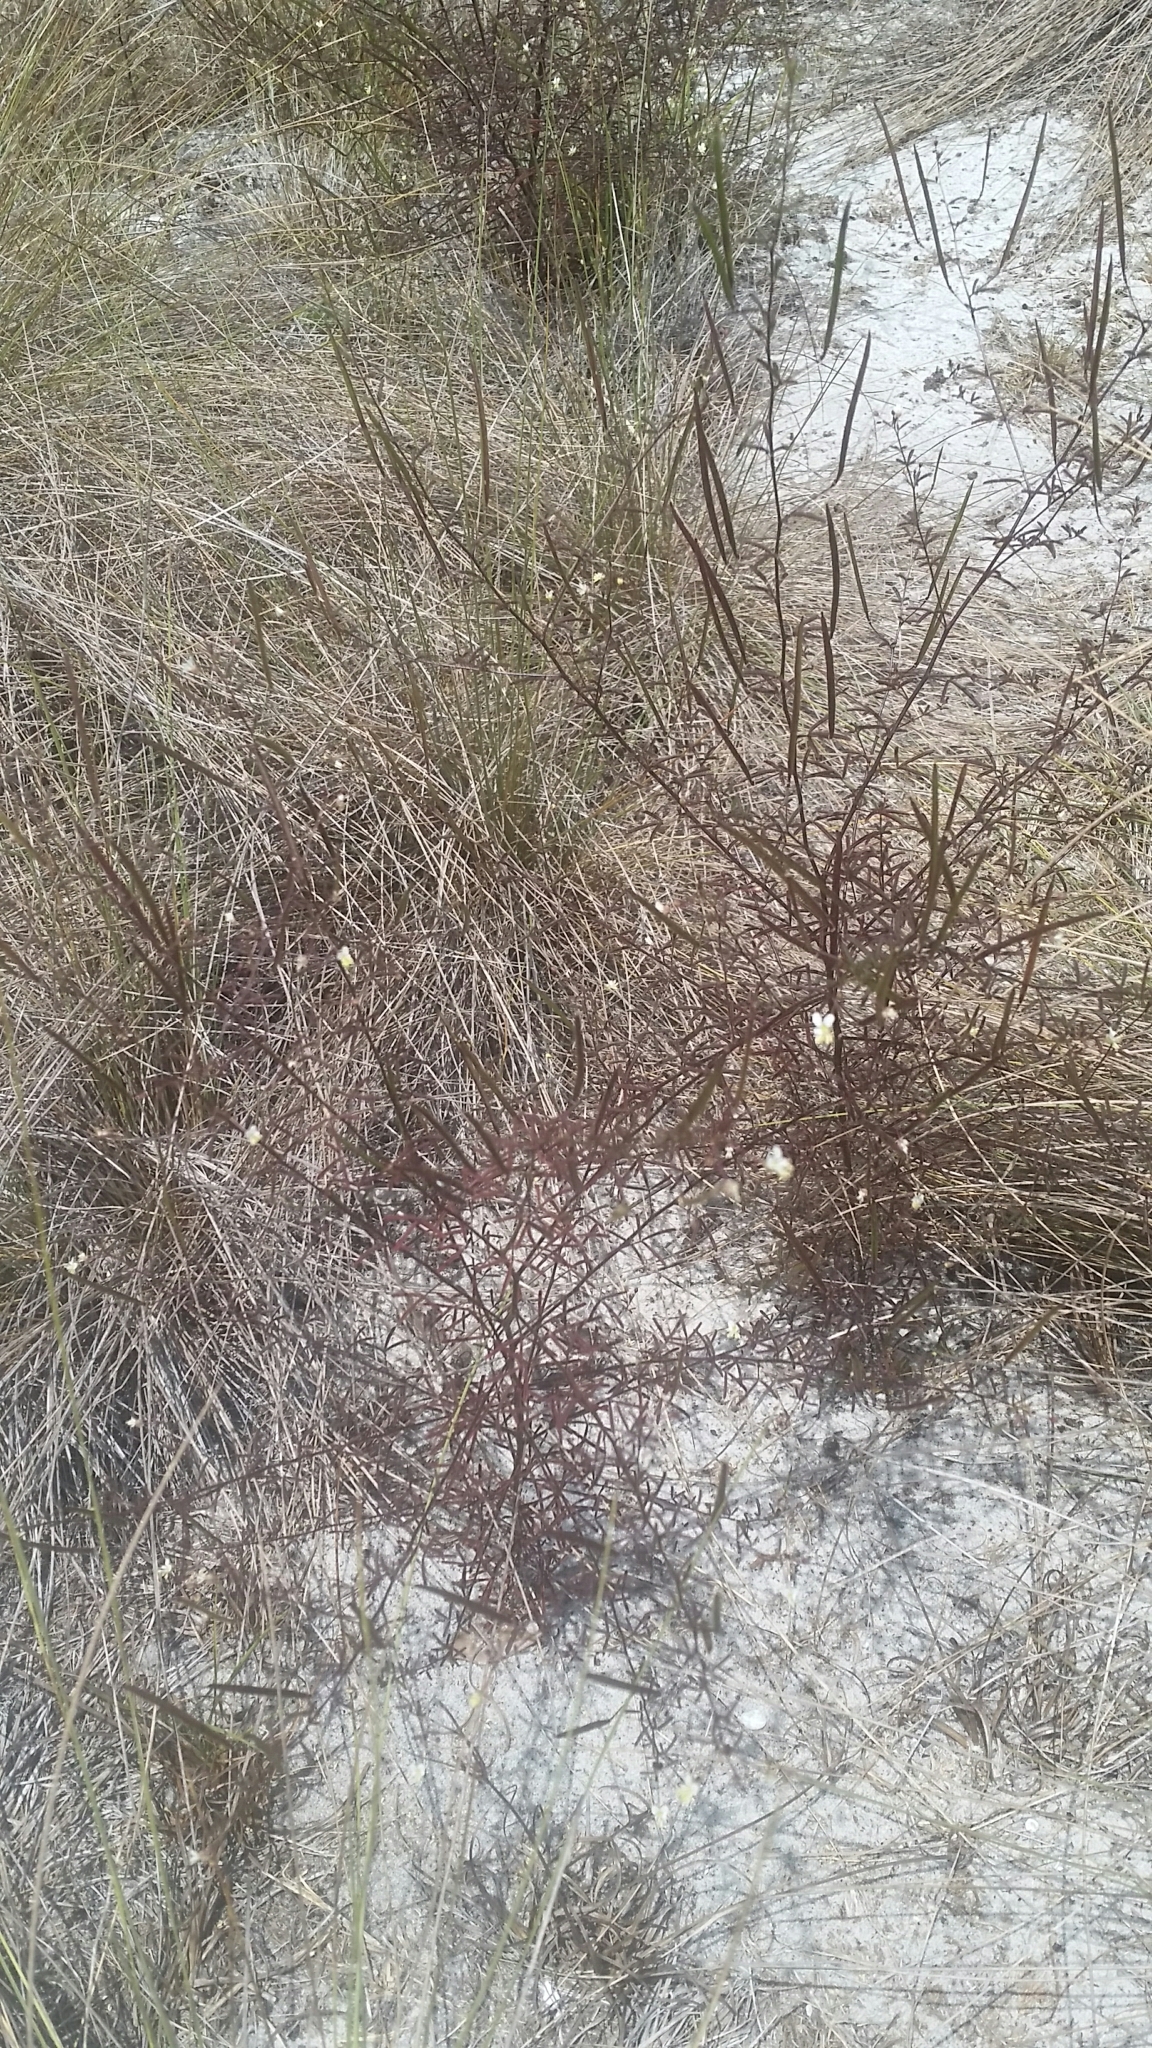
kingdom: Plantae
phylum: Tracheophyta
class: Magnoliopsida
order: Brassicales
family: Cleomaceae
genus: Polanisia
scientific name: Polanisia tenuifolia
